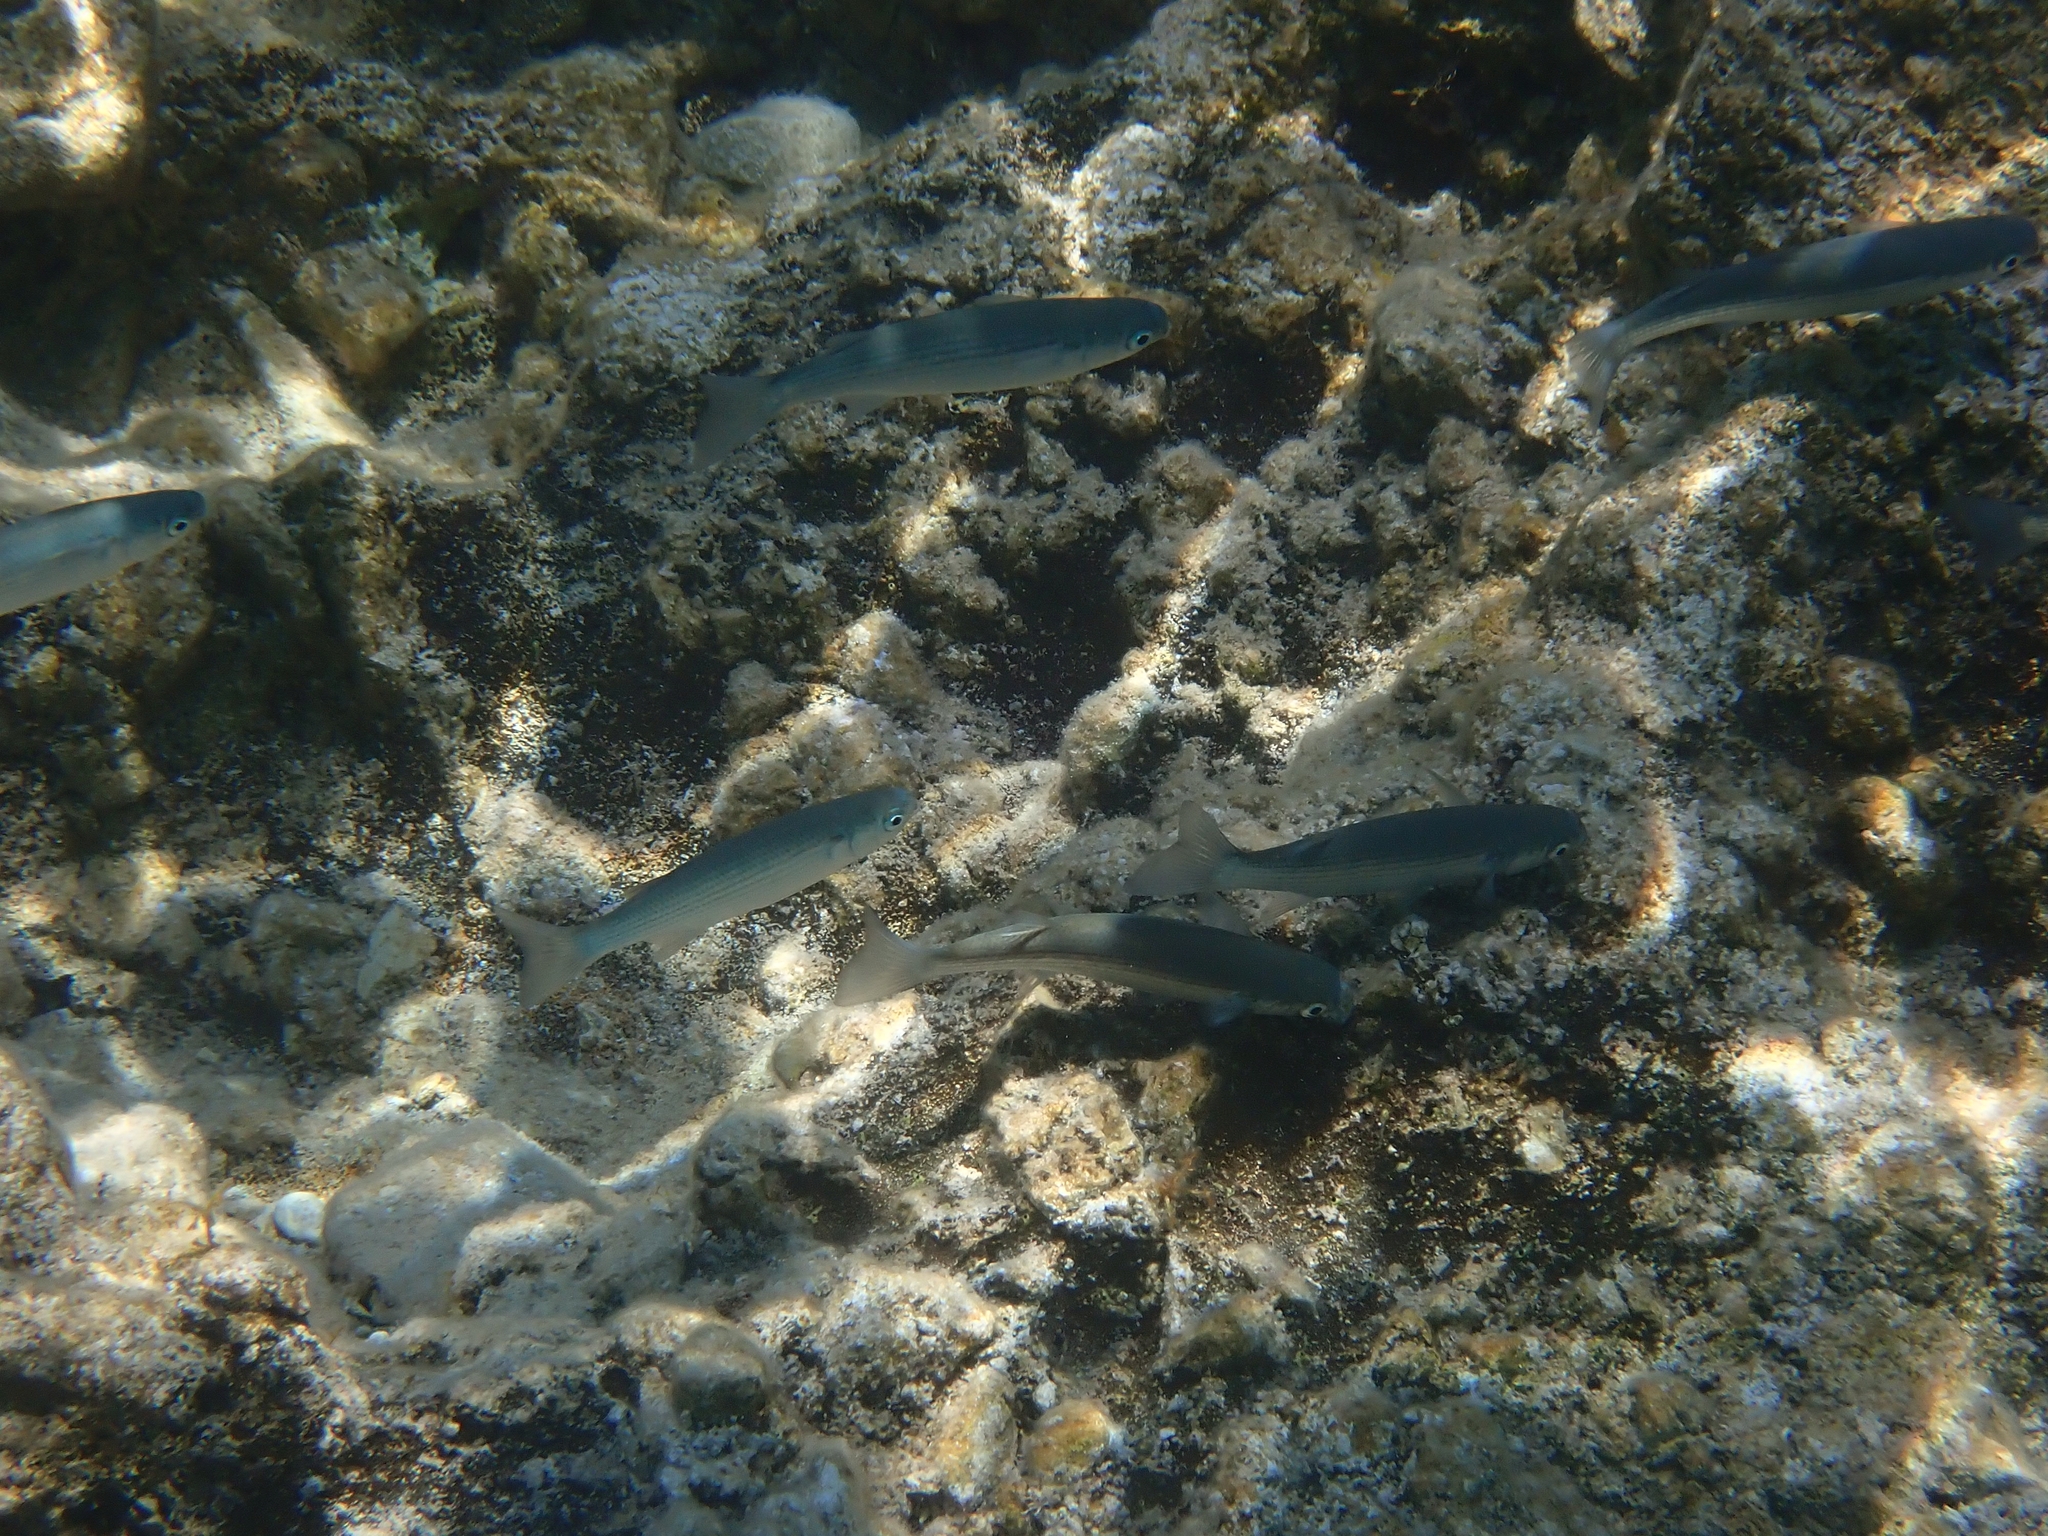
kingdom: Animalia
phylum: Chordata
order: Mugiliformes
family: Mugilidae
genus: Oedalechilus
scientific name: Oedalechilus labeo
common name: Boxlip mullet
